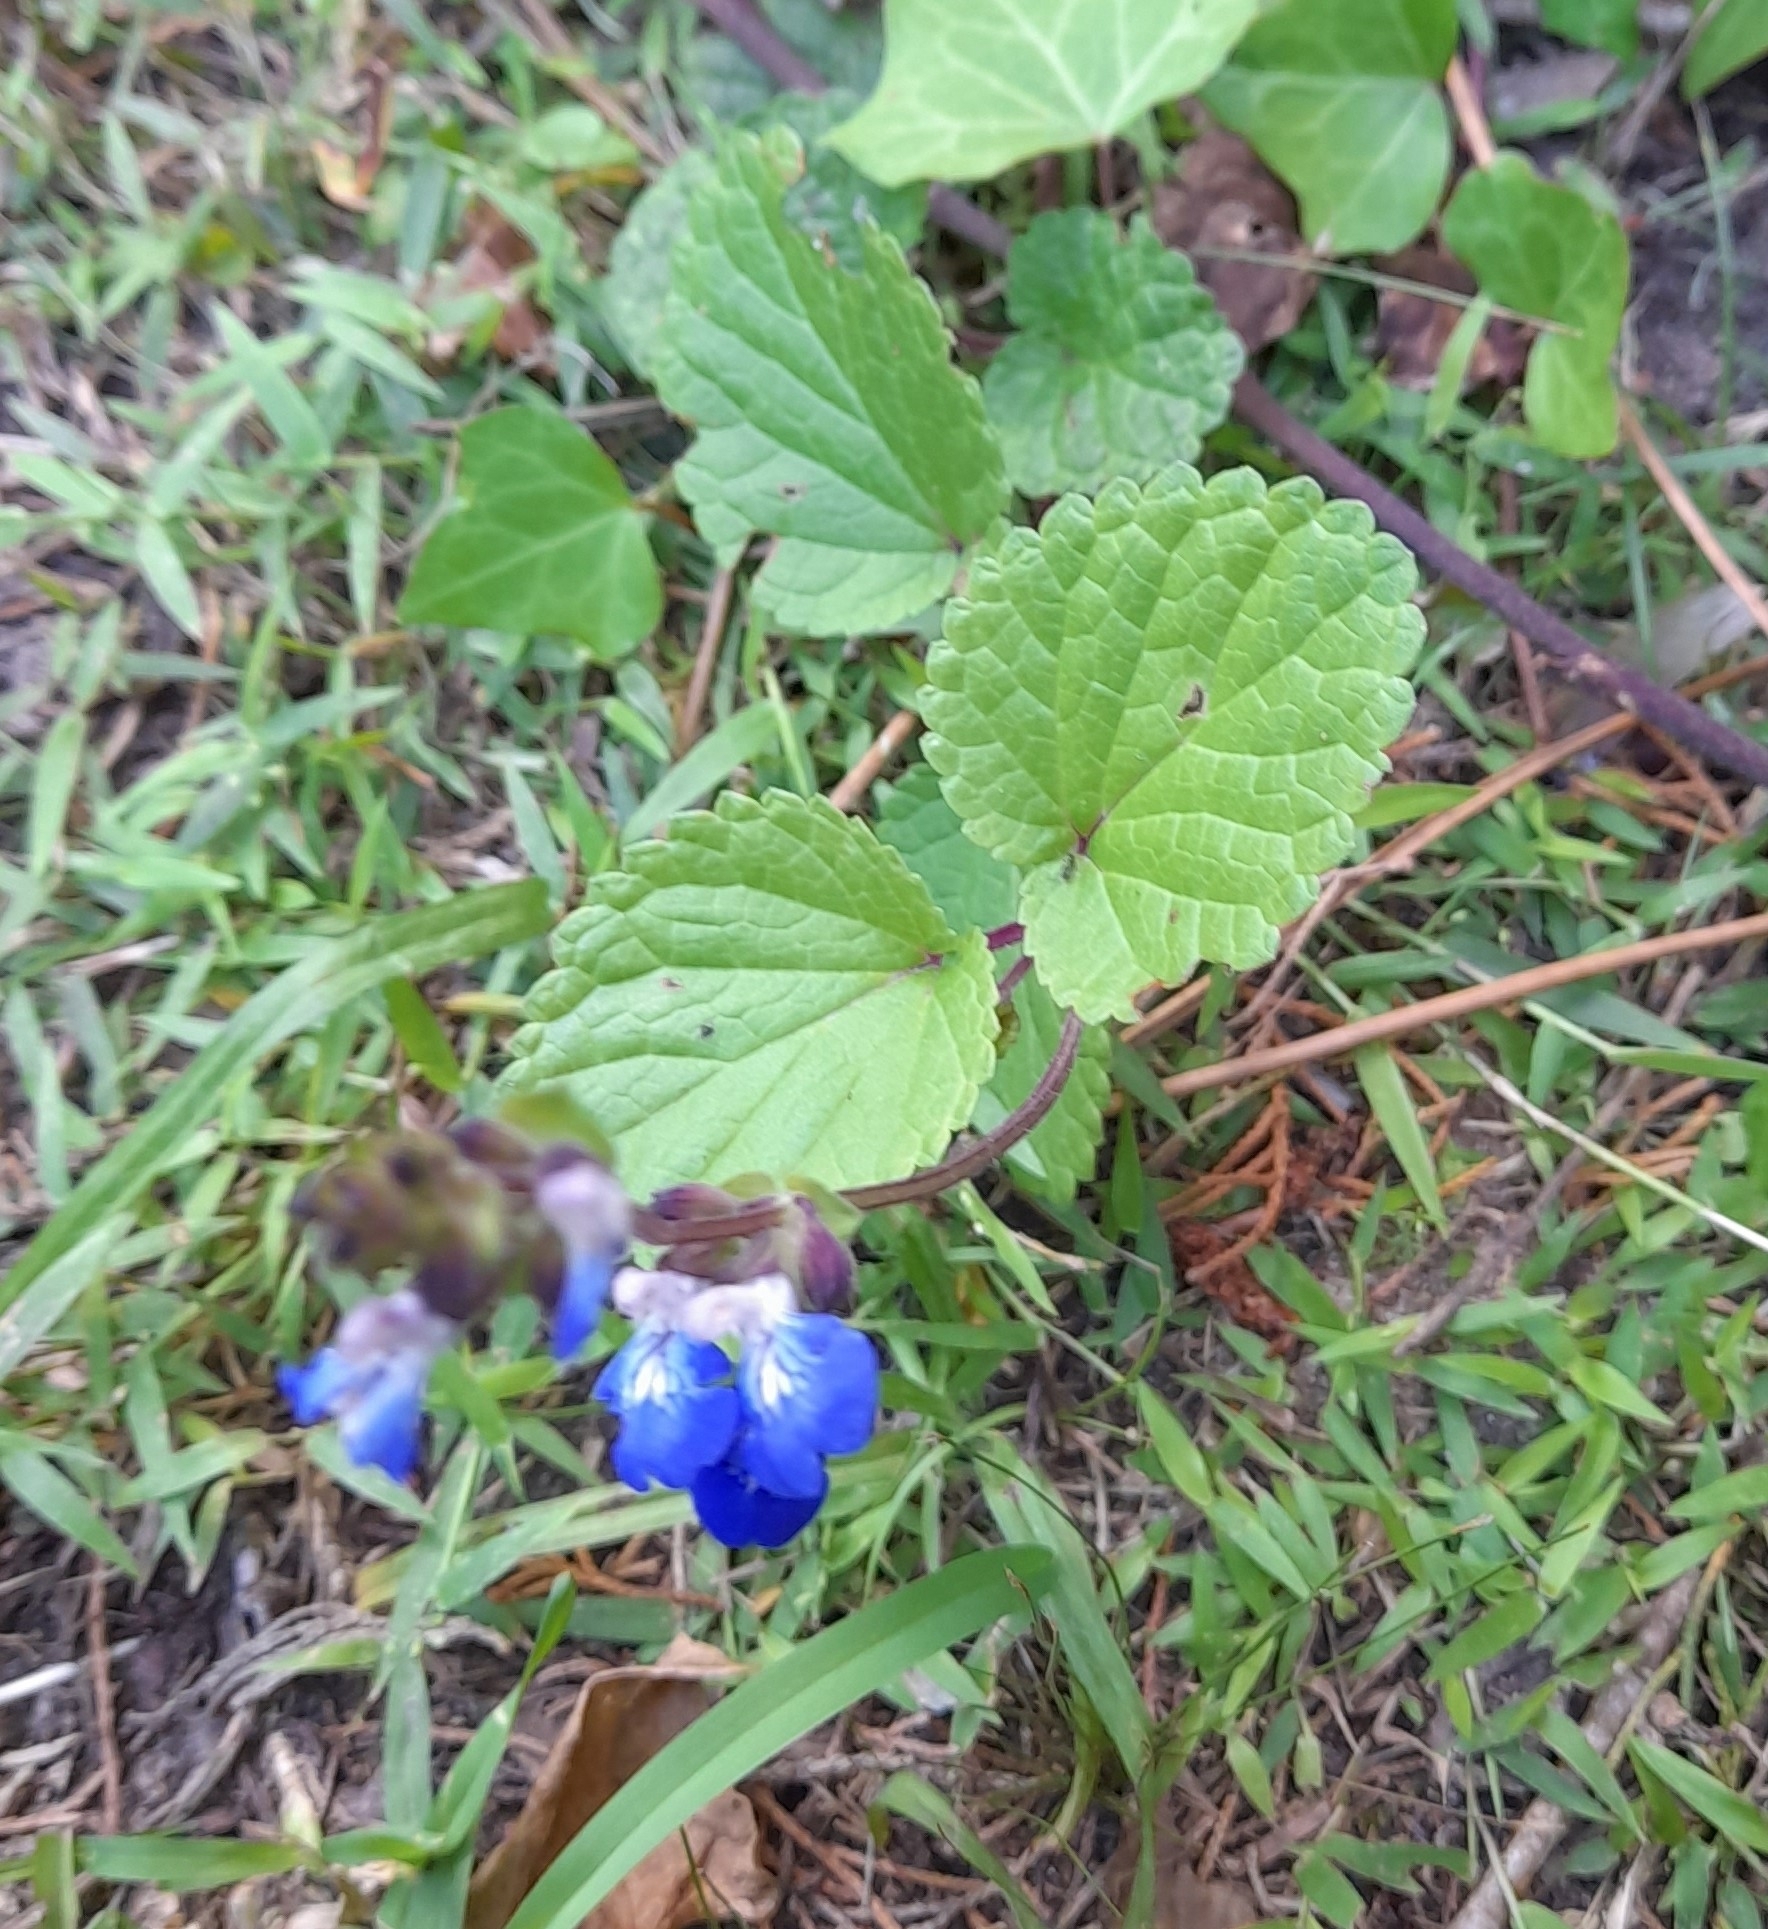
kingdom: Plantae
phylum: Tracheophyta
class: Magnoliopsida
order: Lamiales
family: Lamiaceae
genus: Salvia
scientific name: Salvia procurrens
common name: Blue creeper
